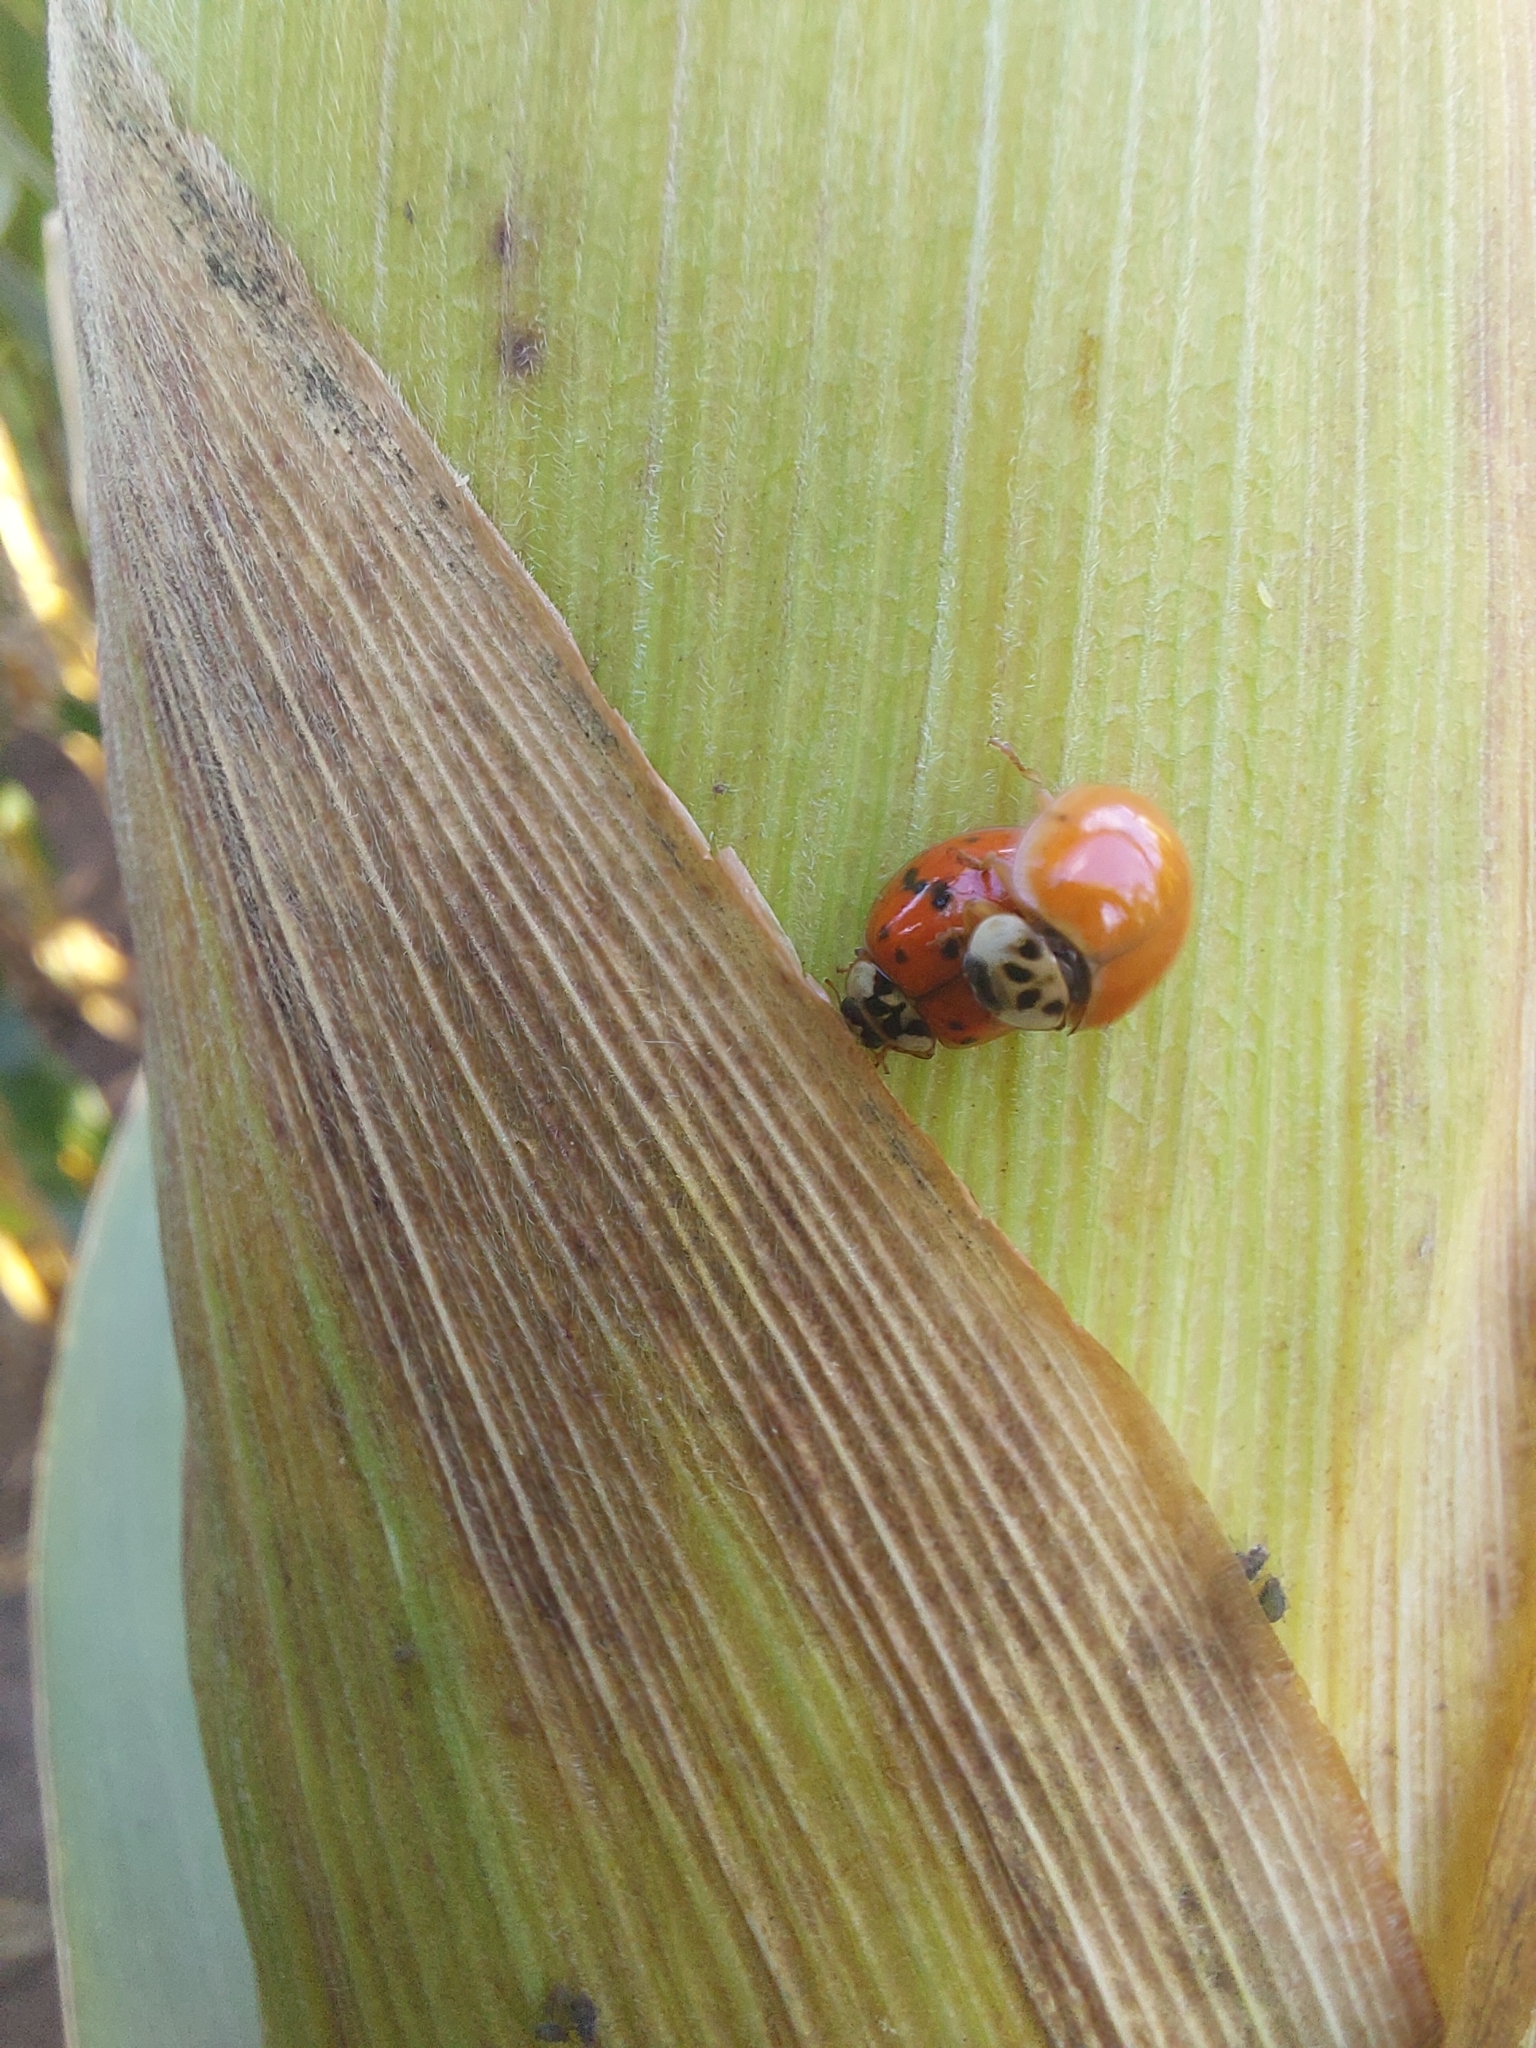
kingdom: Animalia
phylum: Arthropoda
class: Insecta
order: Coleoptera
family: Coccinellidae
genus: Harmonia
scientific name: Harmonia axyridis
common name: Harlequin ladybird
